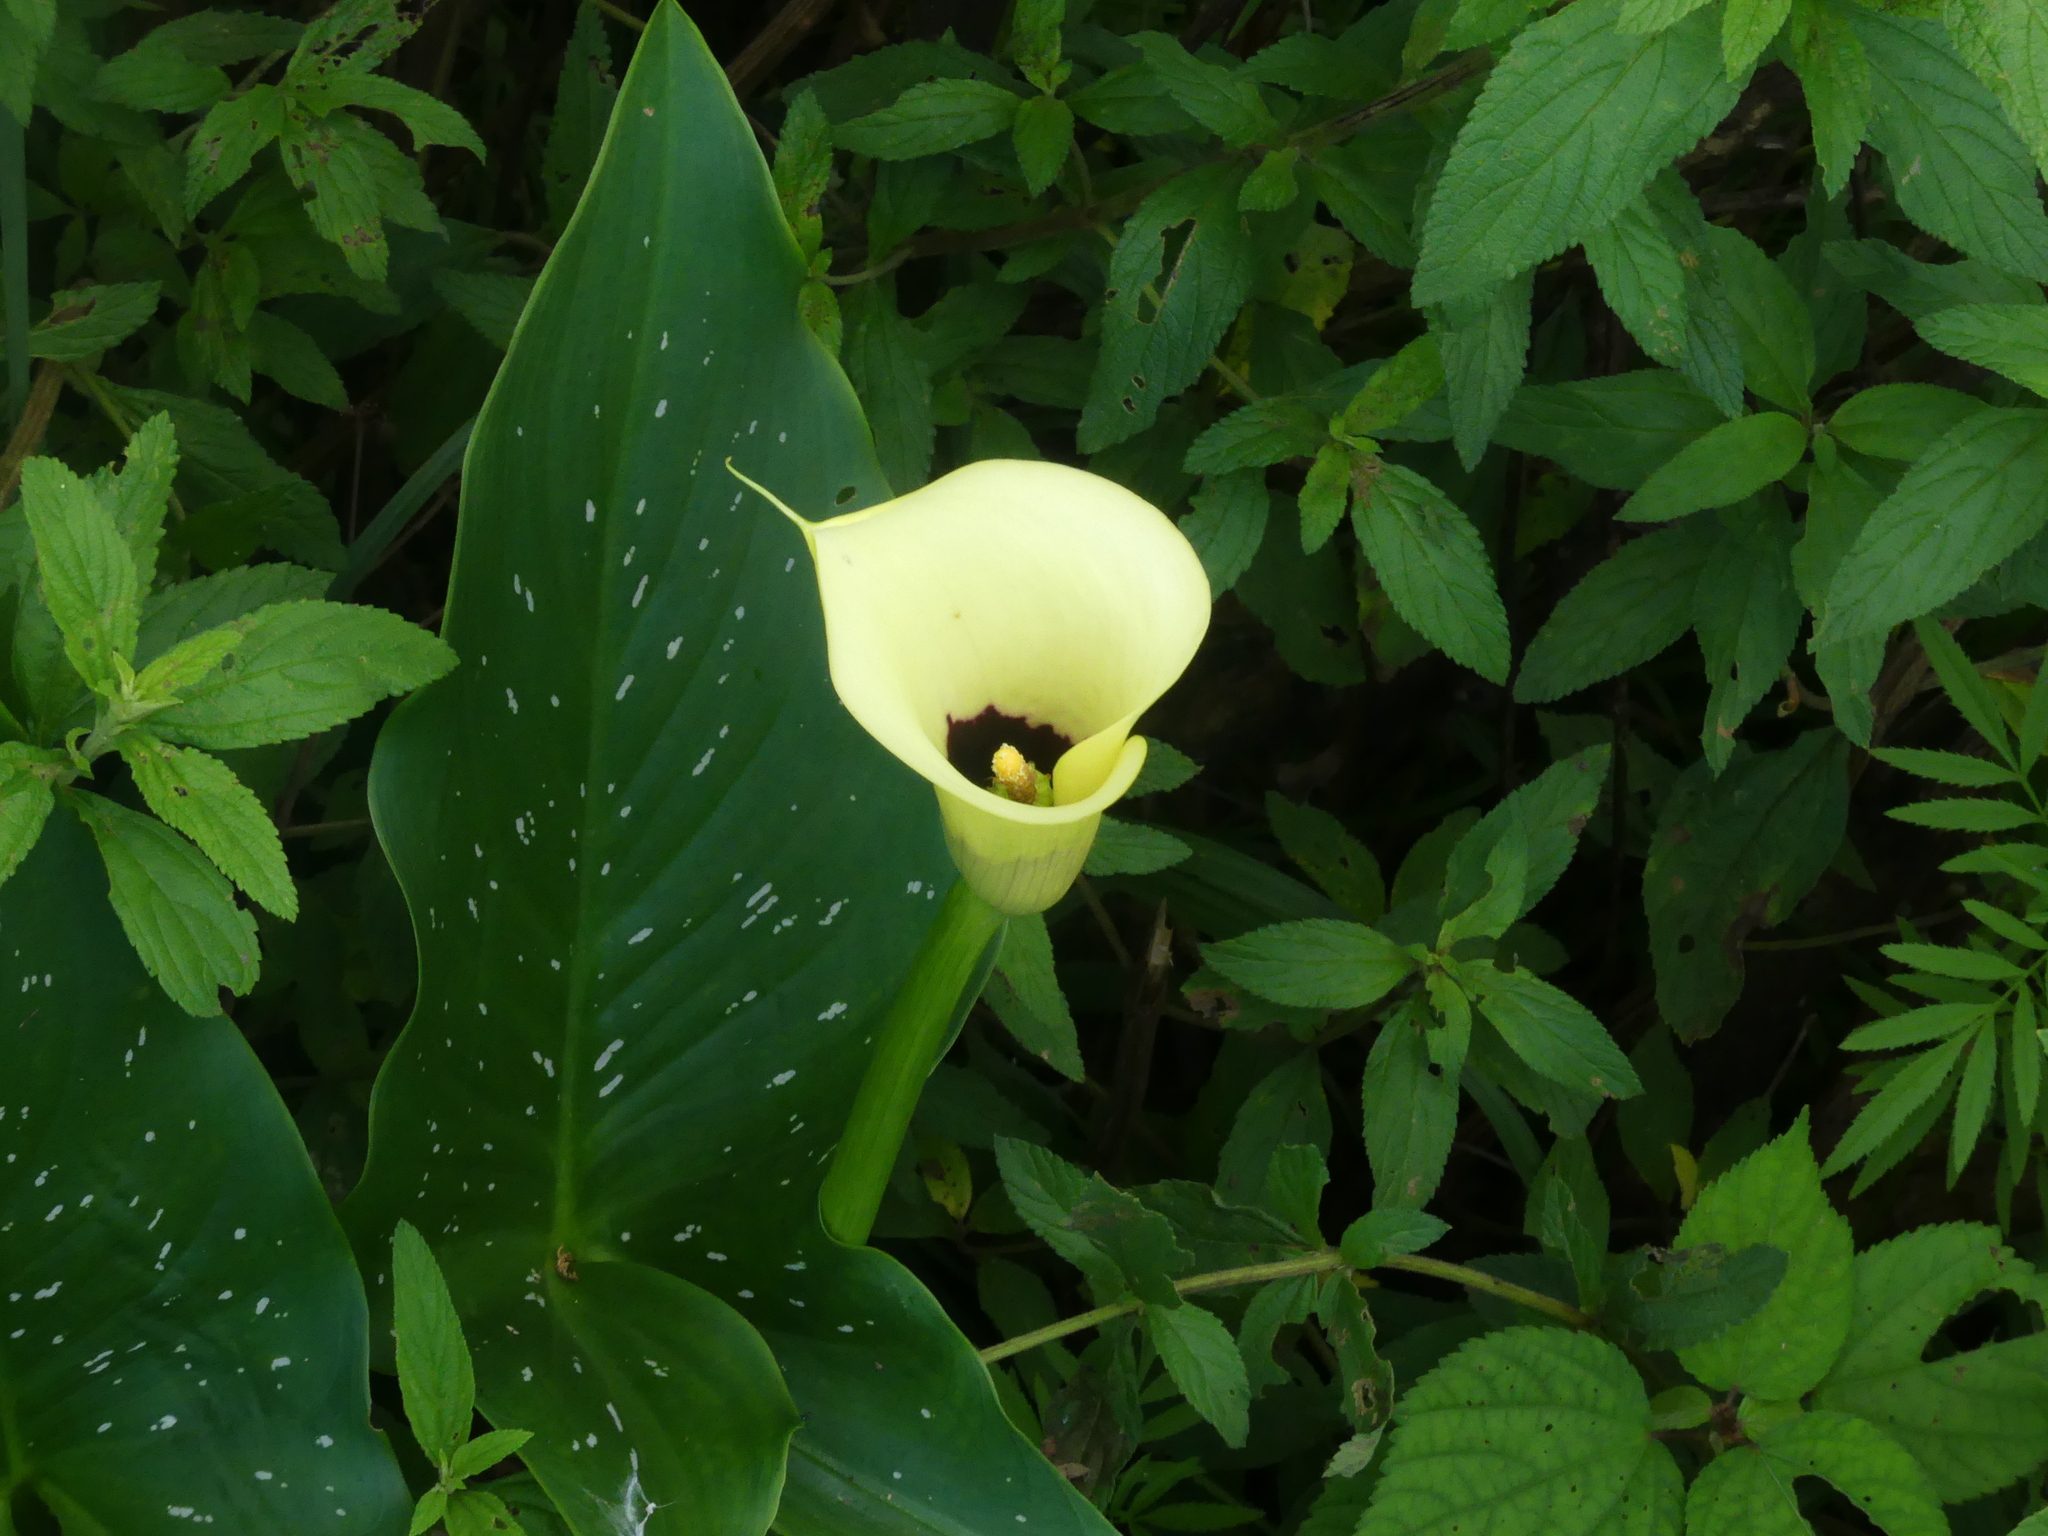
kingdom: Plantae
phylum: Tracheophyta
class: Liliopsida
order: Alismatales
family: Araceae
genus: Zantedeschia
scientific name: Zantedeschia albomaculata
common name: Spotted calla lily
